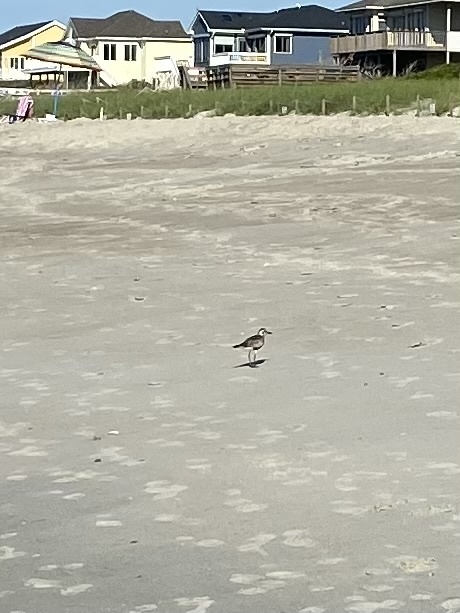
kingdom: Animalia
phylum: Chordata
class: Aves
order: Charadriiformes
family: Charadriidae
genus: Pluvialis
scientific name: Pluvialis squatarola
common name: Grey plover
